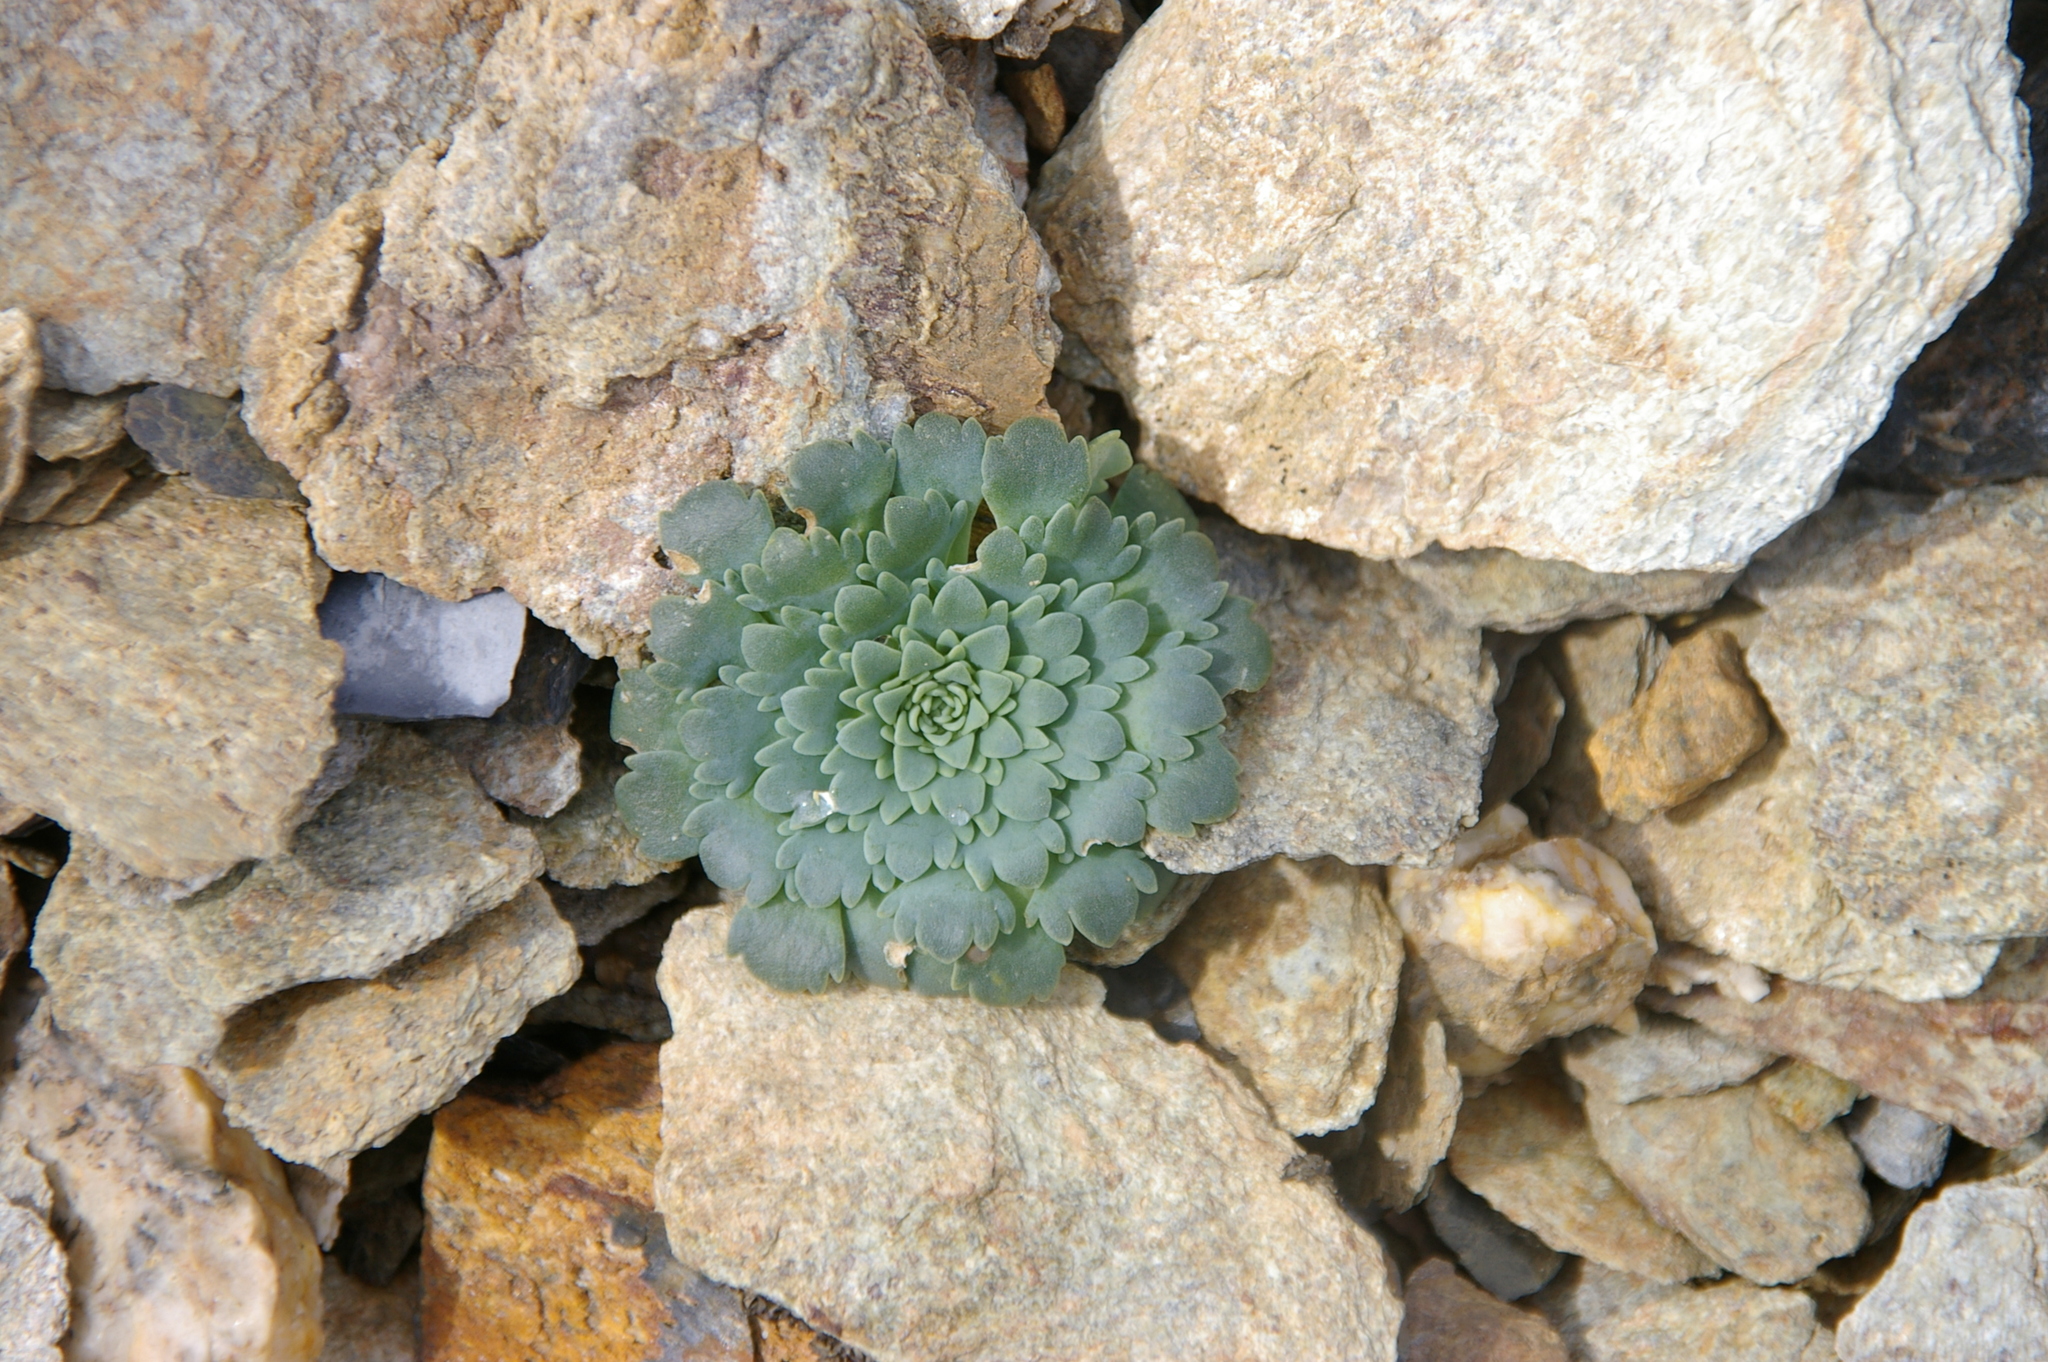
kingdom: Plantae
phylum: Tracheophyta
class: Magnoliopsida
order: Asterales
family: Calyceraceae
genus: Moschopsis
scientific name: Moschopsis rosulata
